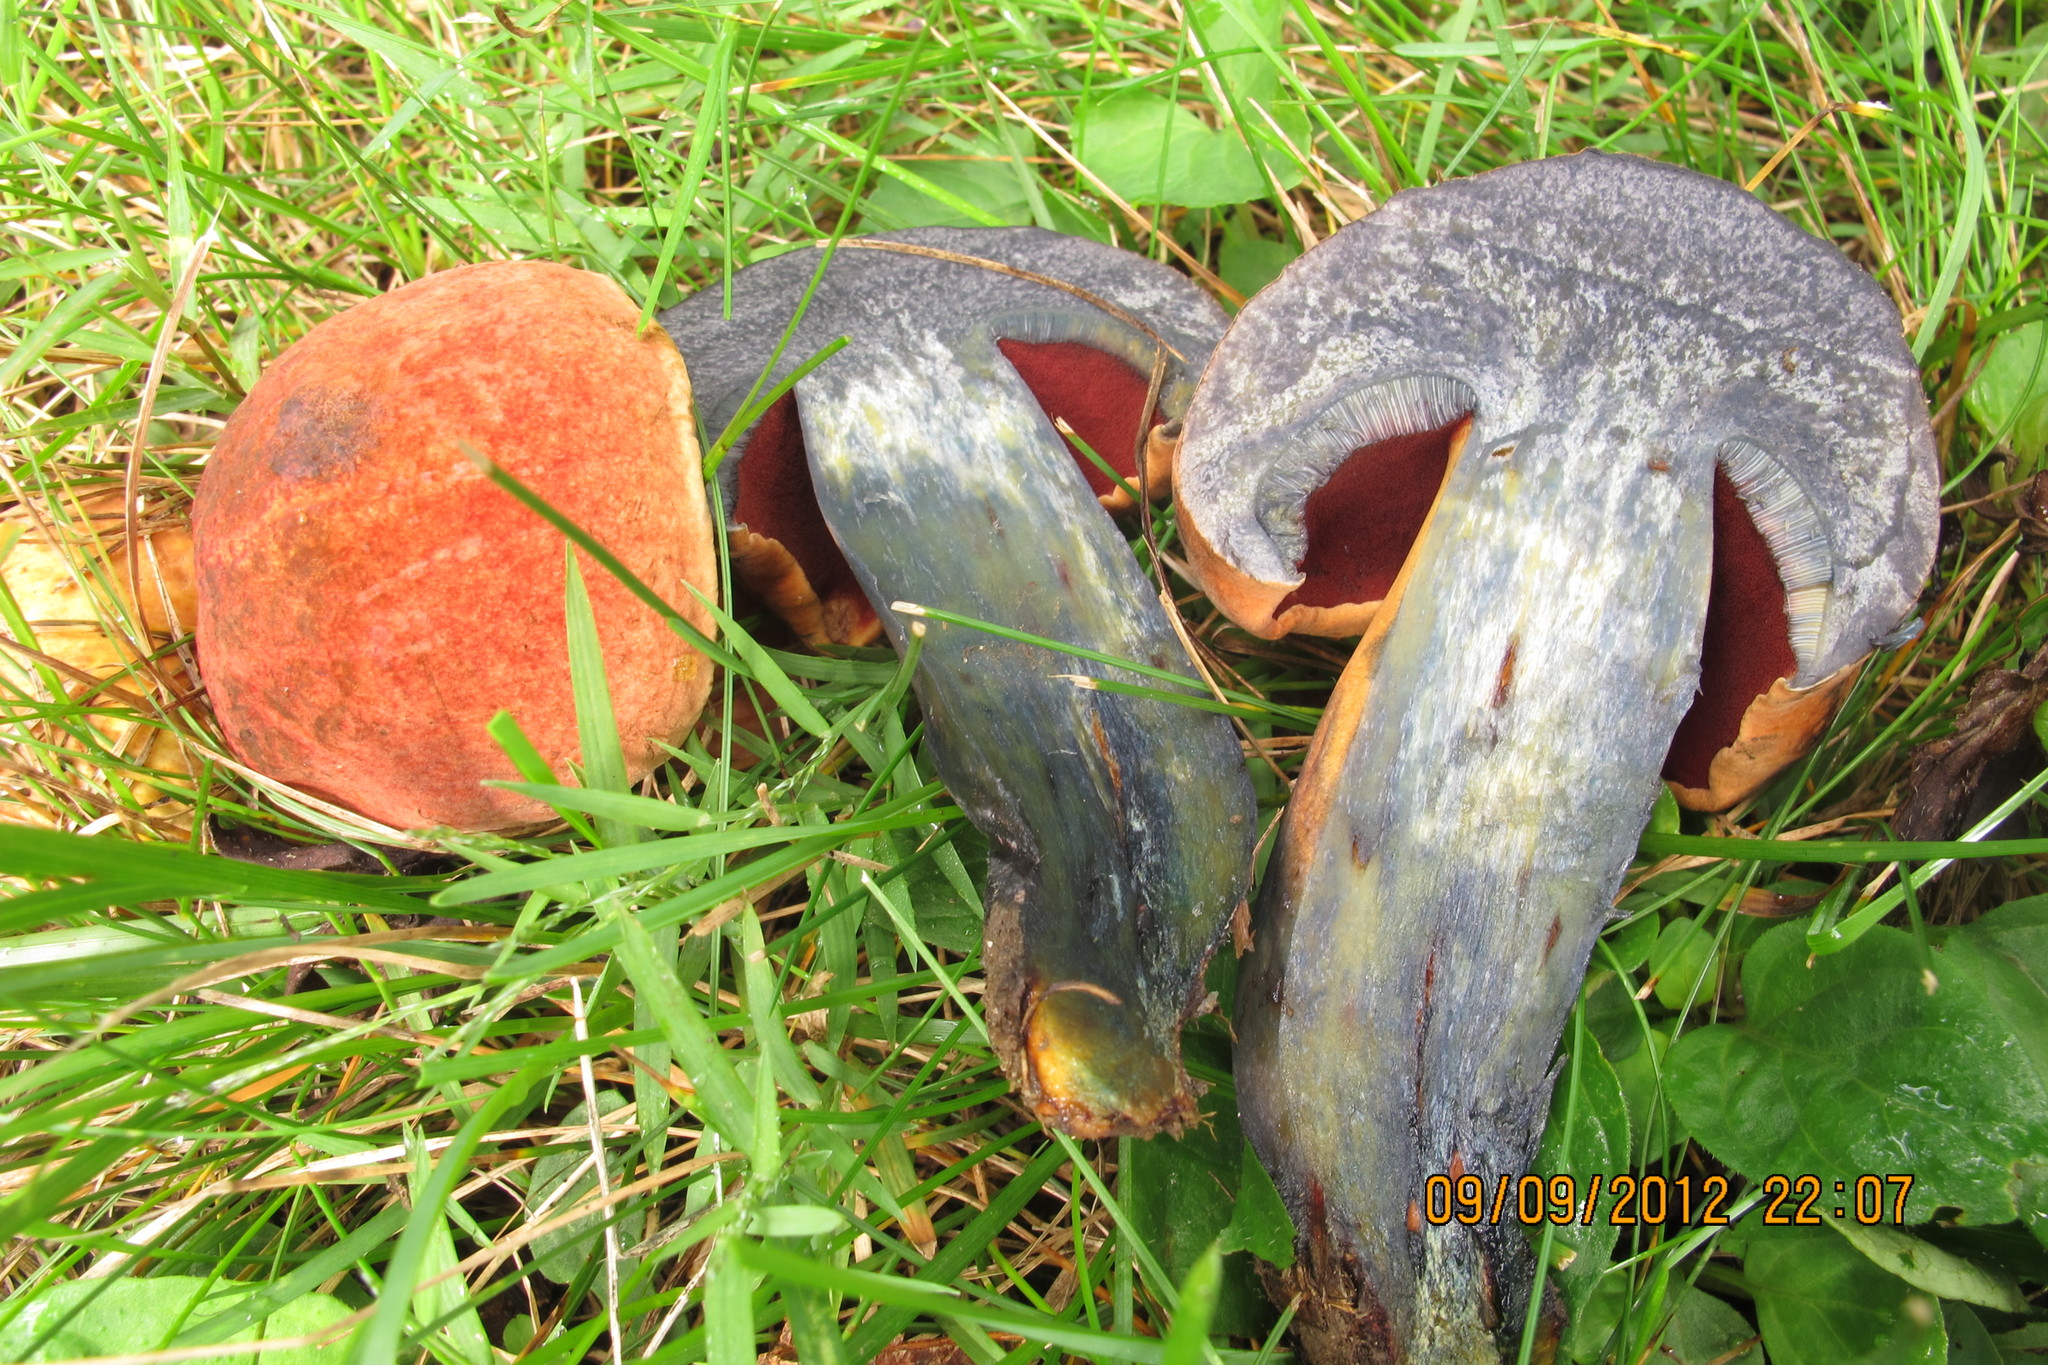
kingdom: Fungi
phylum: Basidiomycota
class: Agaricomycetes
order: Boletales
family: Boletaceae
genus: Boletus
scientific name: Boletus subvelutipes
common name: Red-mouth bolete
